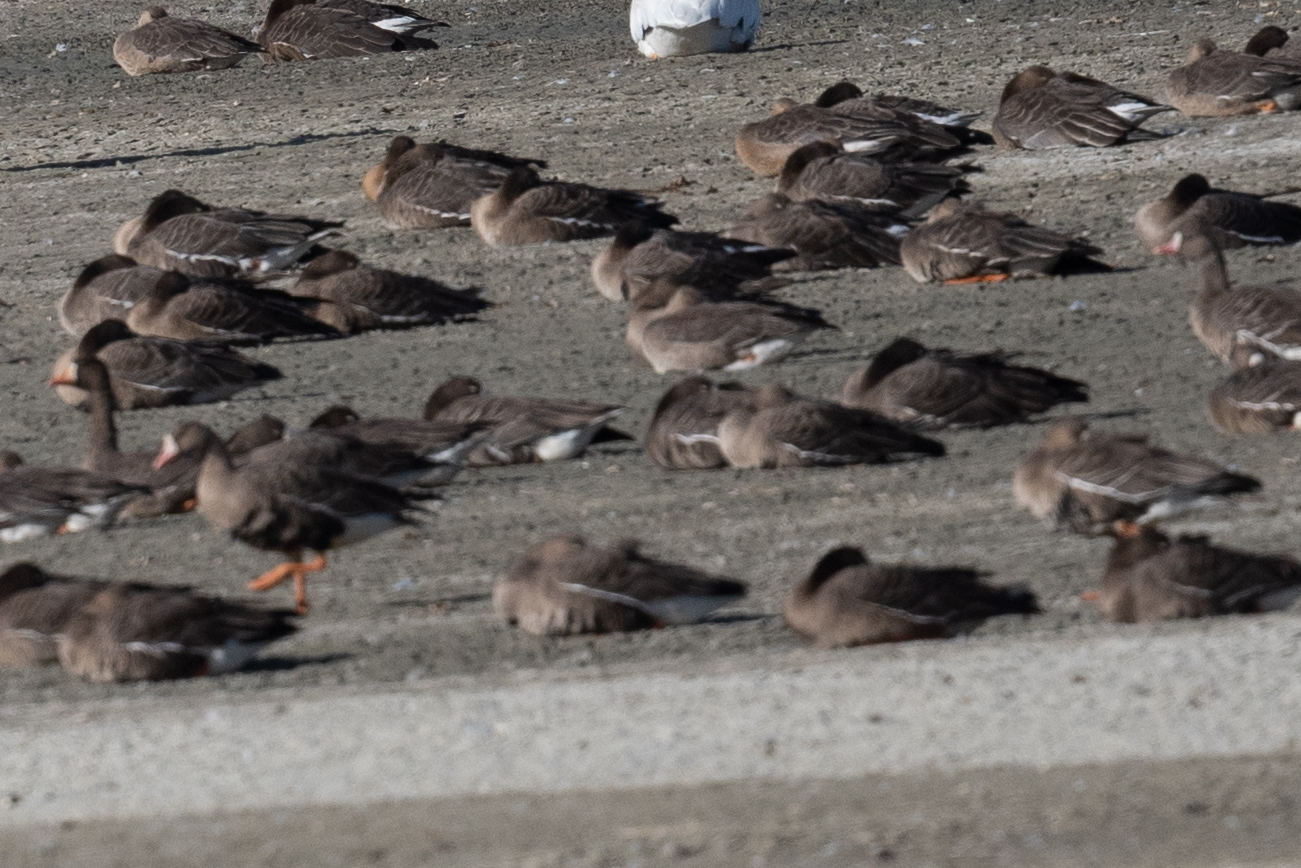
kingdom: Animalia
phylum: Chordata
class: Aves
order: Anseriformes
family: Anatidae
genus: Anser
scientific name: Anser albifrons
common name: Greater white-fronted goose
